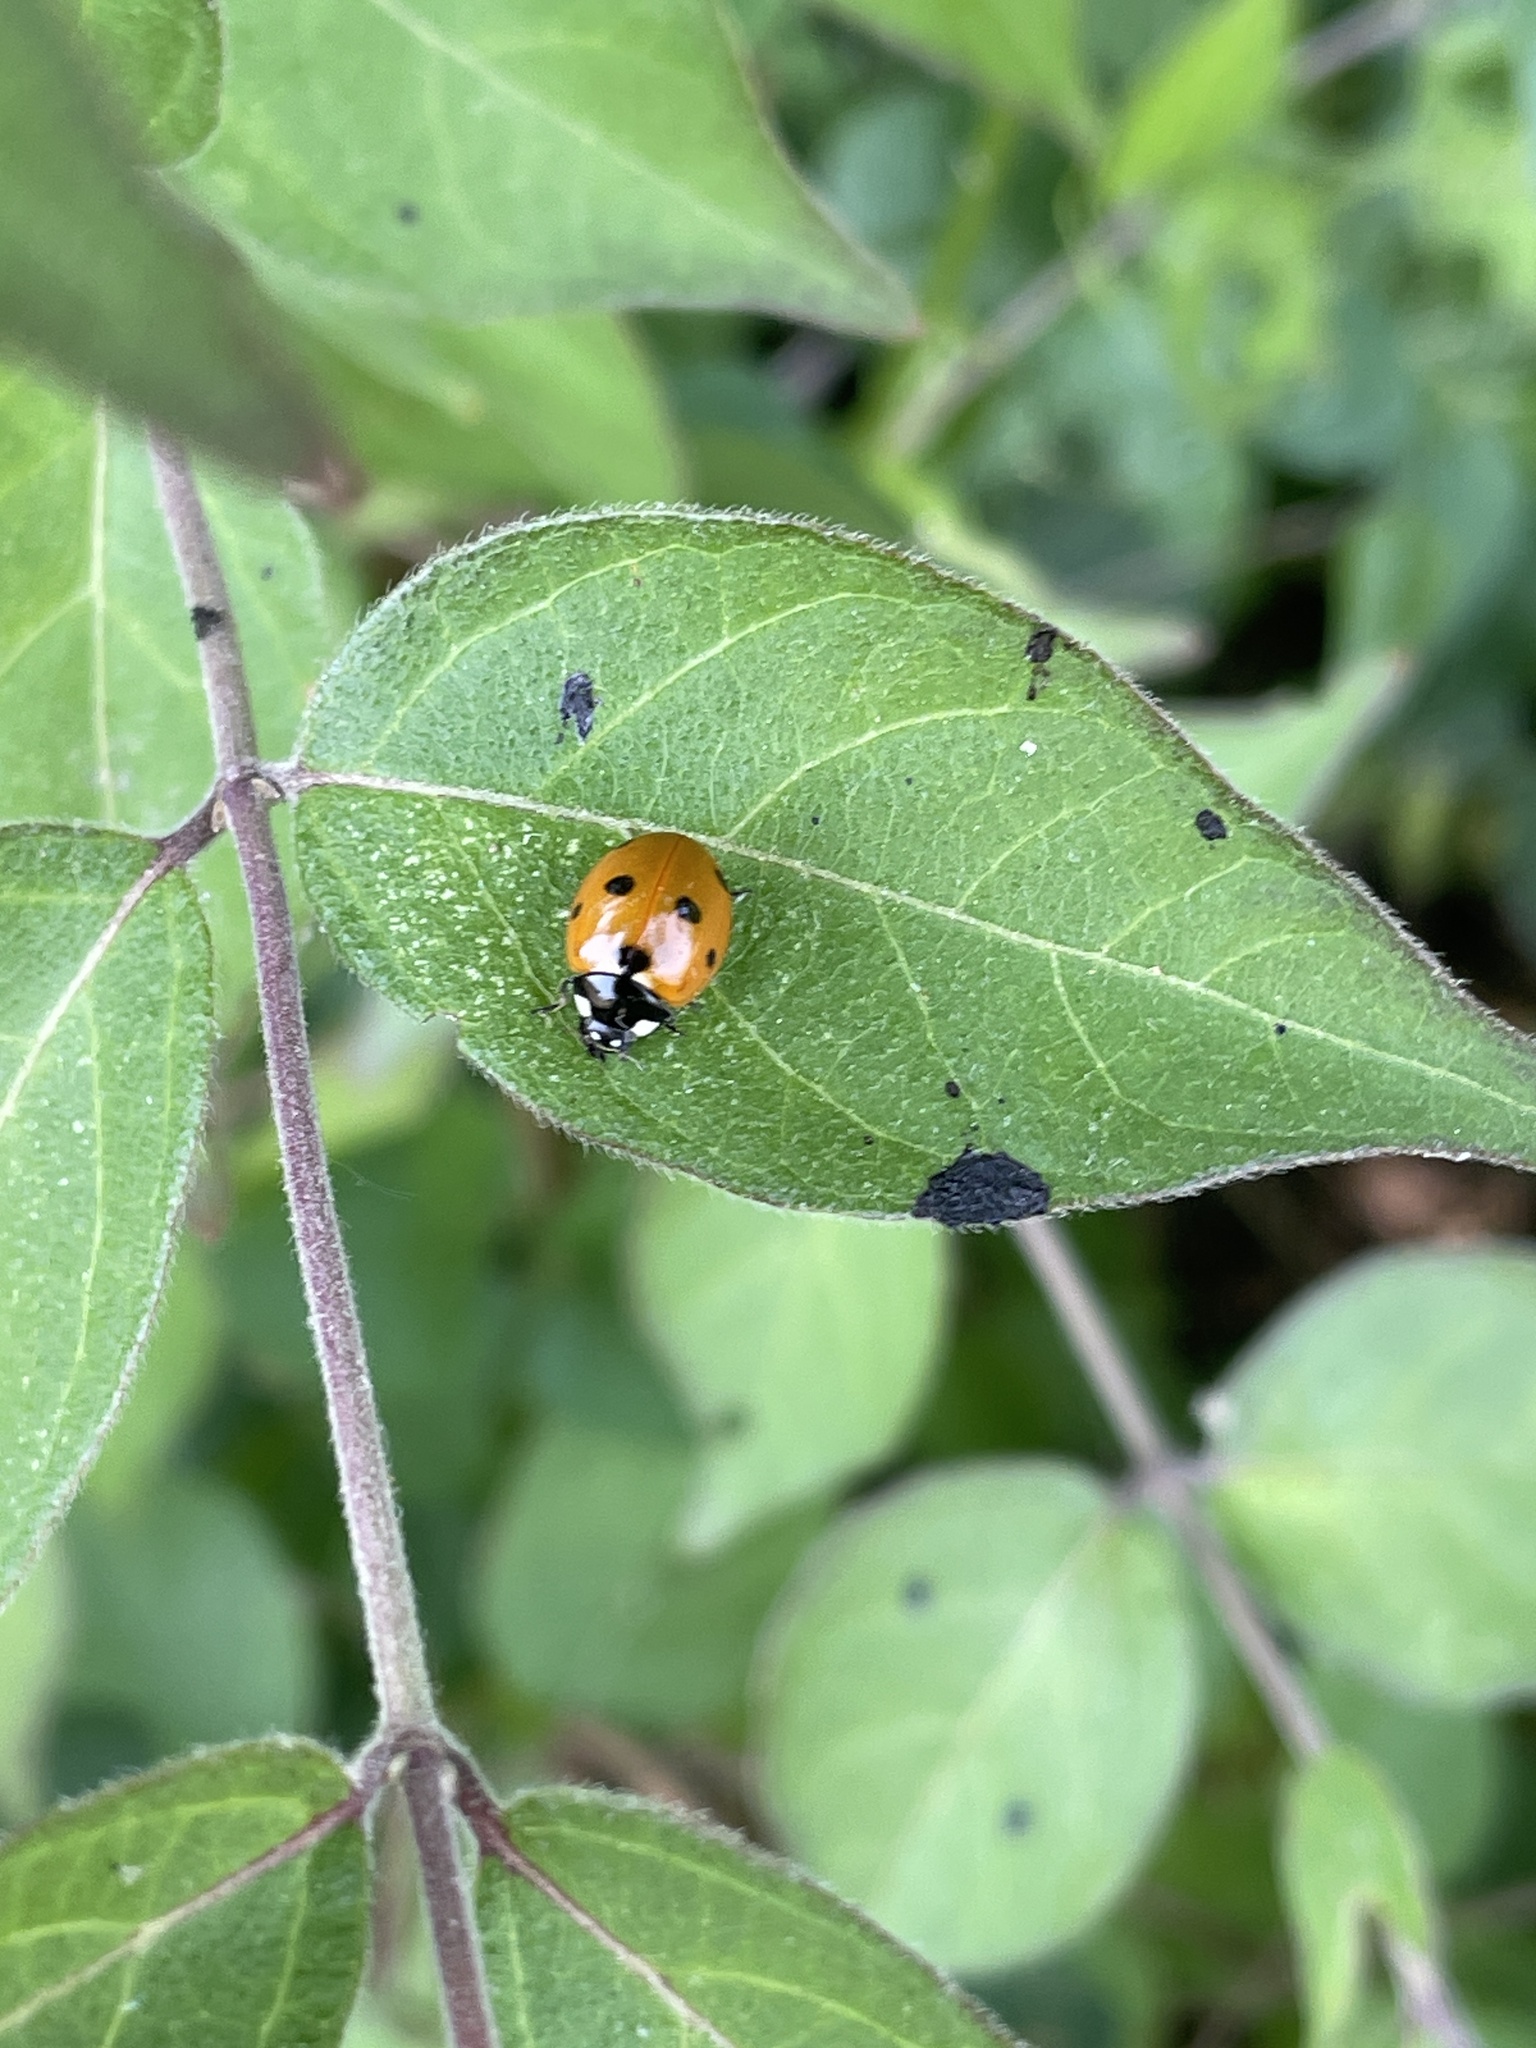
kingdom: Animalia
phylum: Arthropoda
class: Insecta
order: Coleoptera
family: Coccinellidae
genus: Coccinella
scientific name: Coccinella septempunctata
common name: Sevenspotted lady beetle
